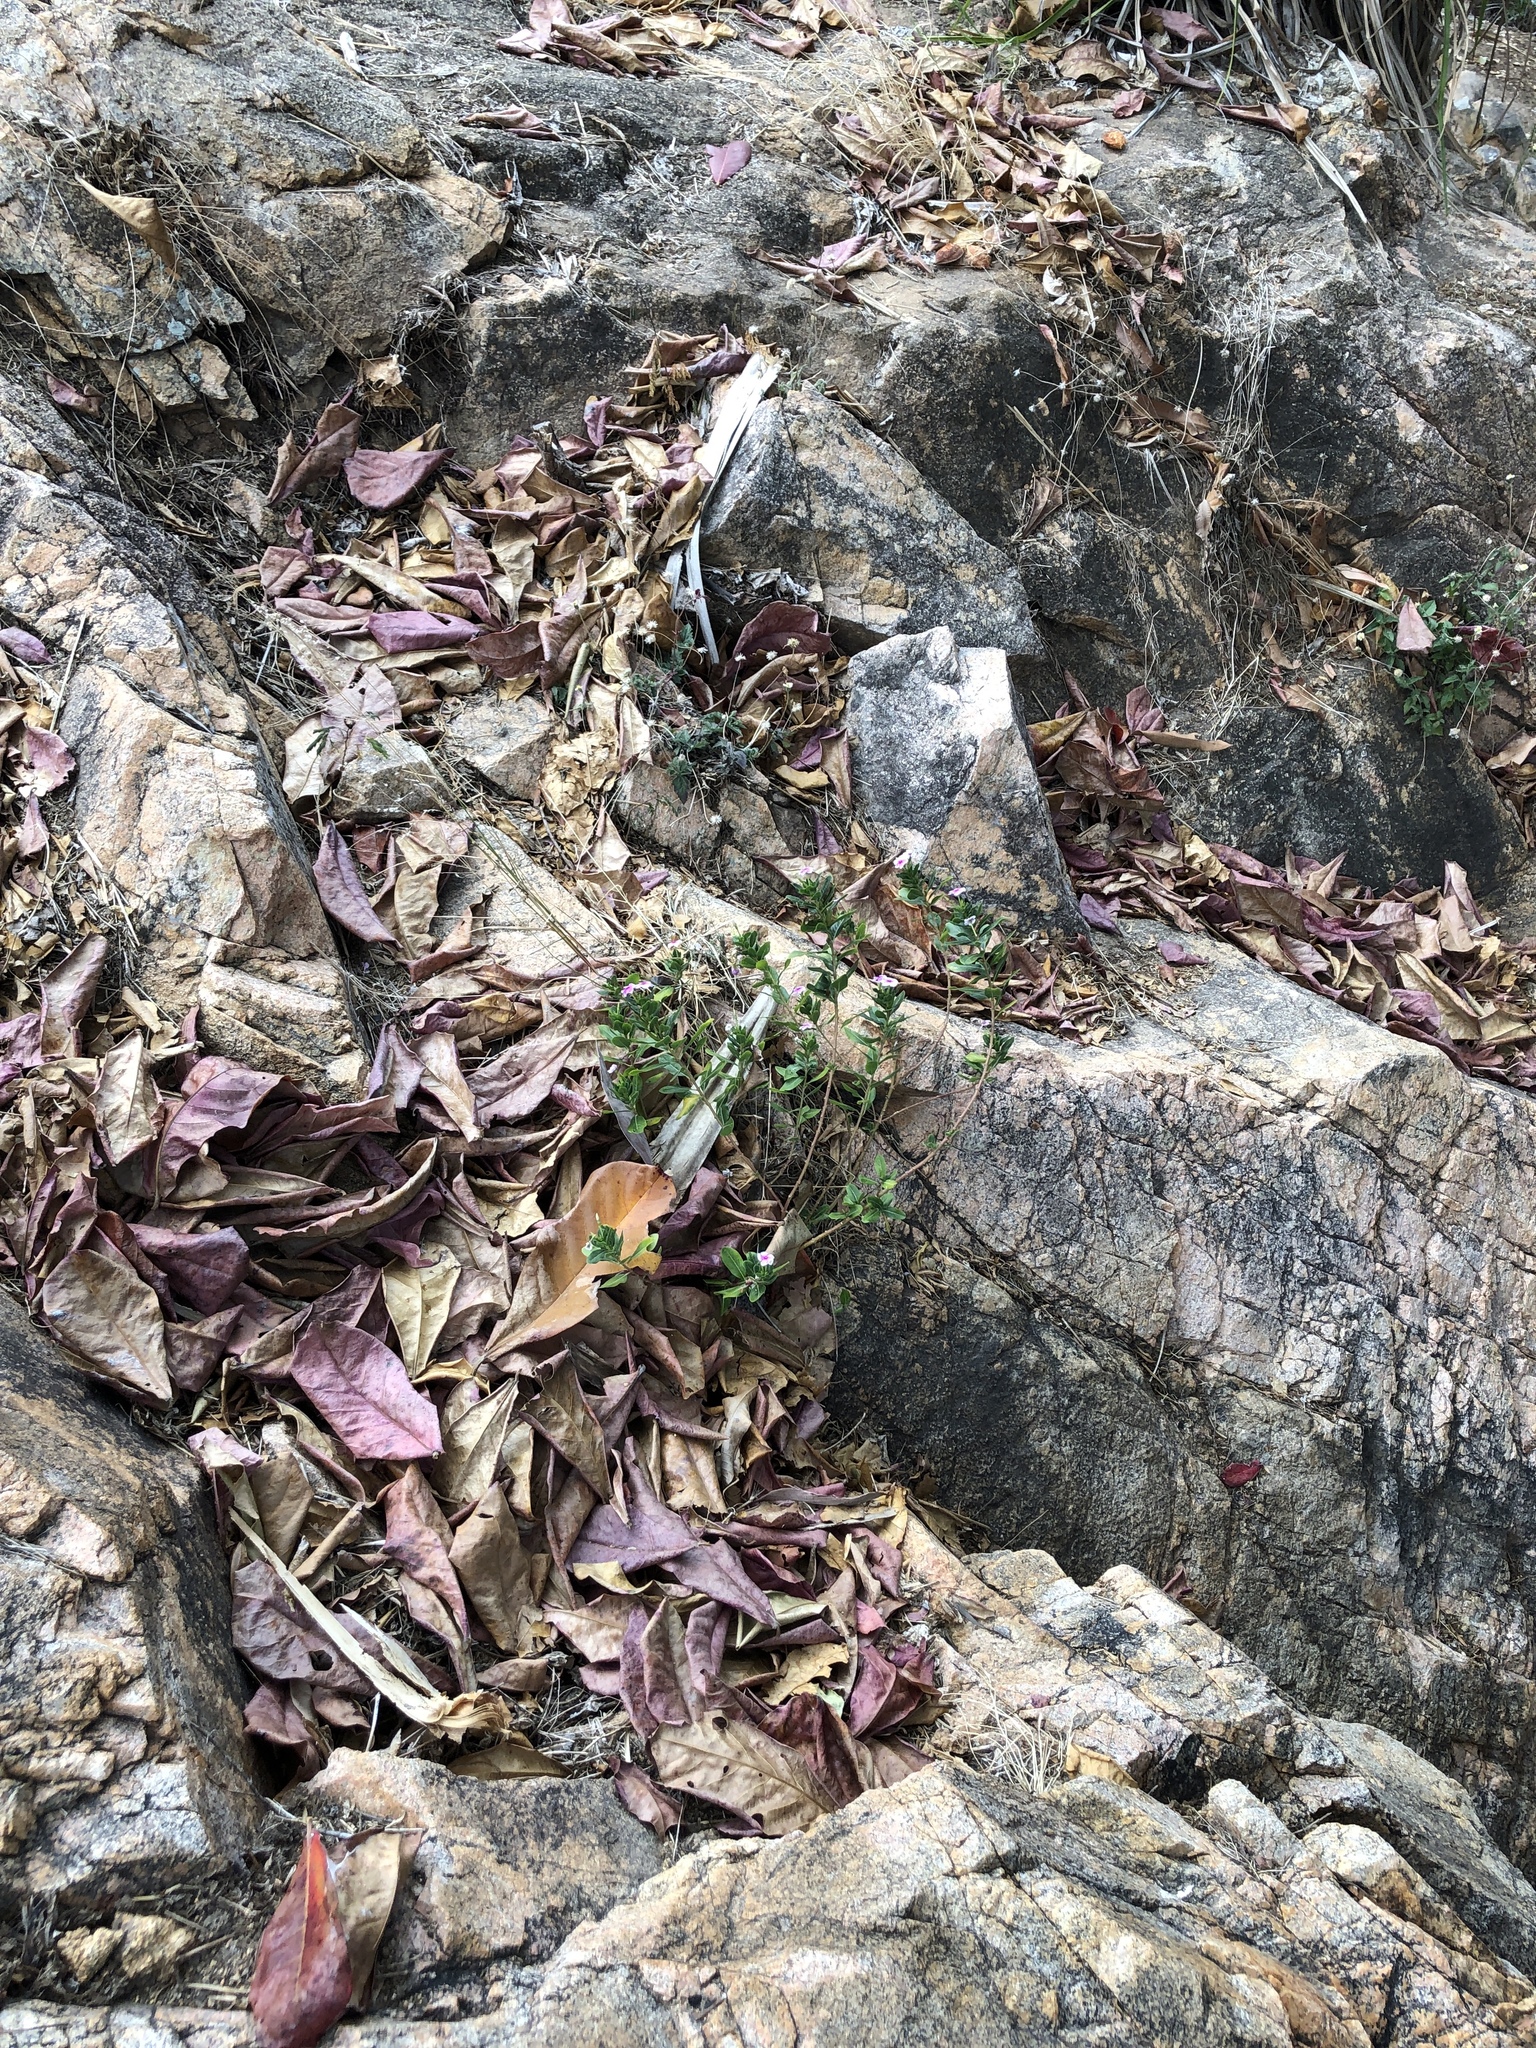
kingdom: Plantae
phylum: Tracheophyta
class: Magnoliopsida
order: Gentianales
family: Apocynaceae
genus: Catharanthus
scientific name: Catharanthus roseus
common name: Madagascar periwinkle
